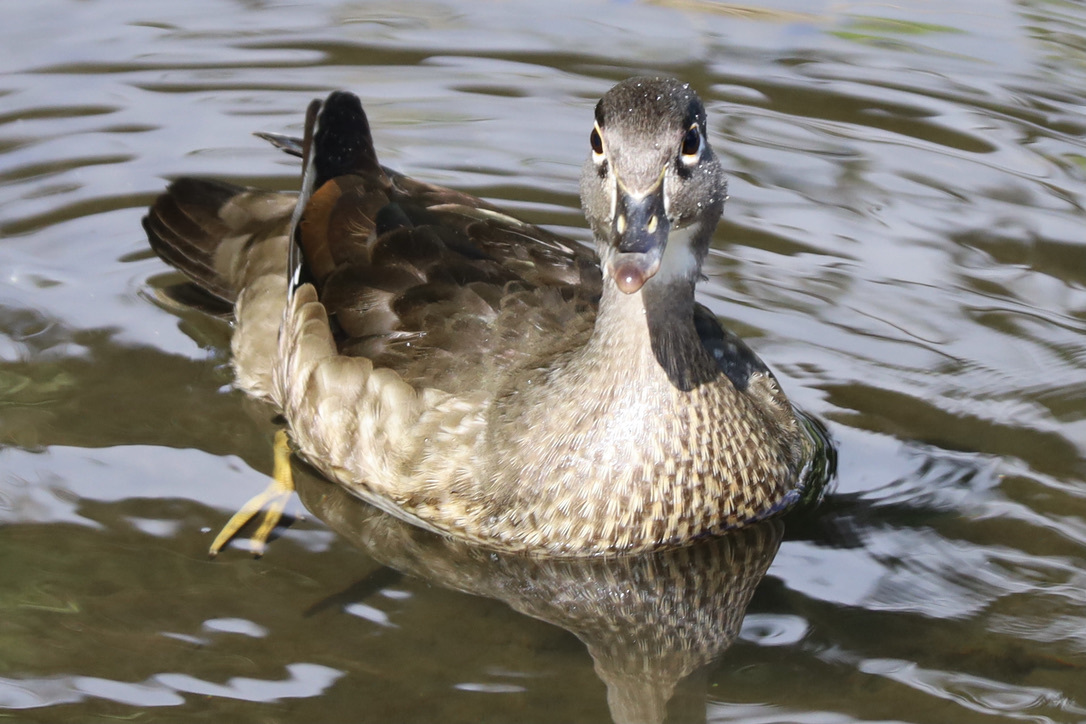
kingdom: Animalia
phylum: Chordata
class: Aves
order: Anseriformes
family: Anatidae
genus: Aix
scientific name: Aix sponsa
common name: Wood duck
